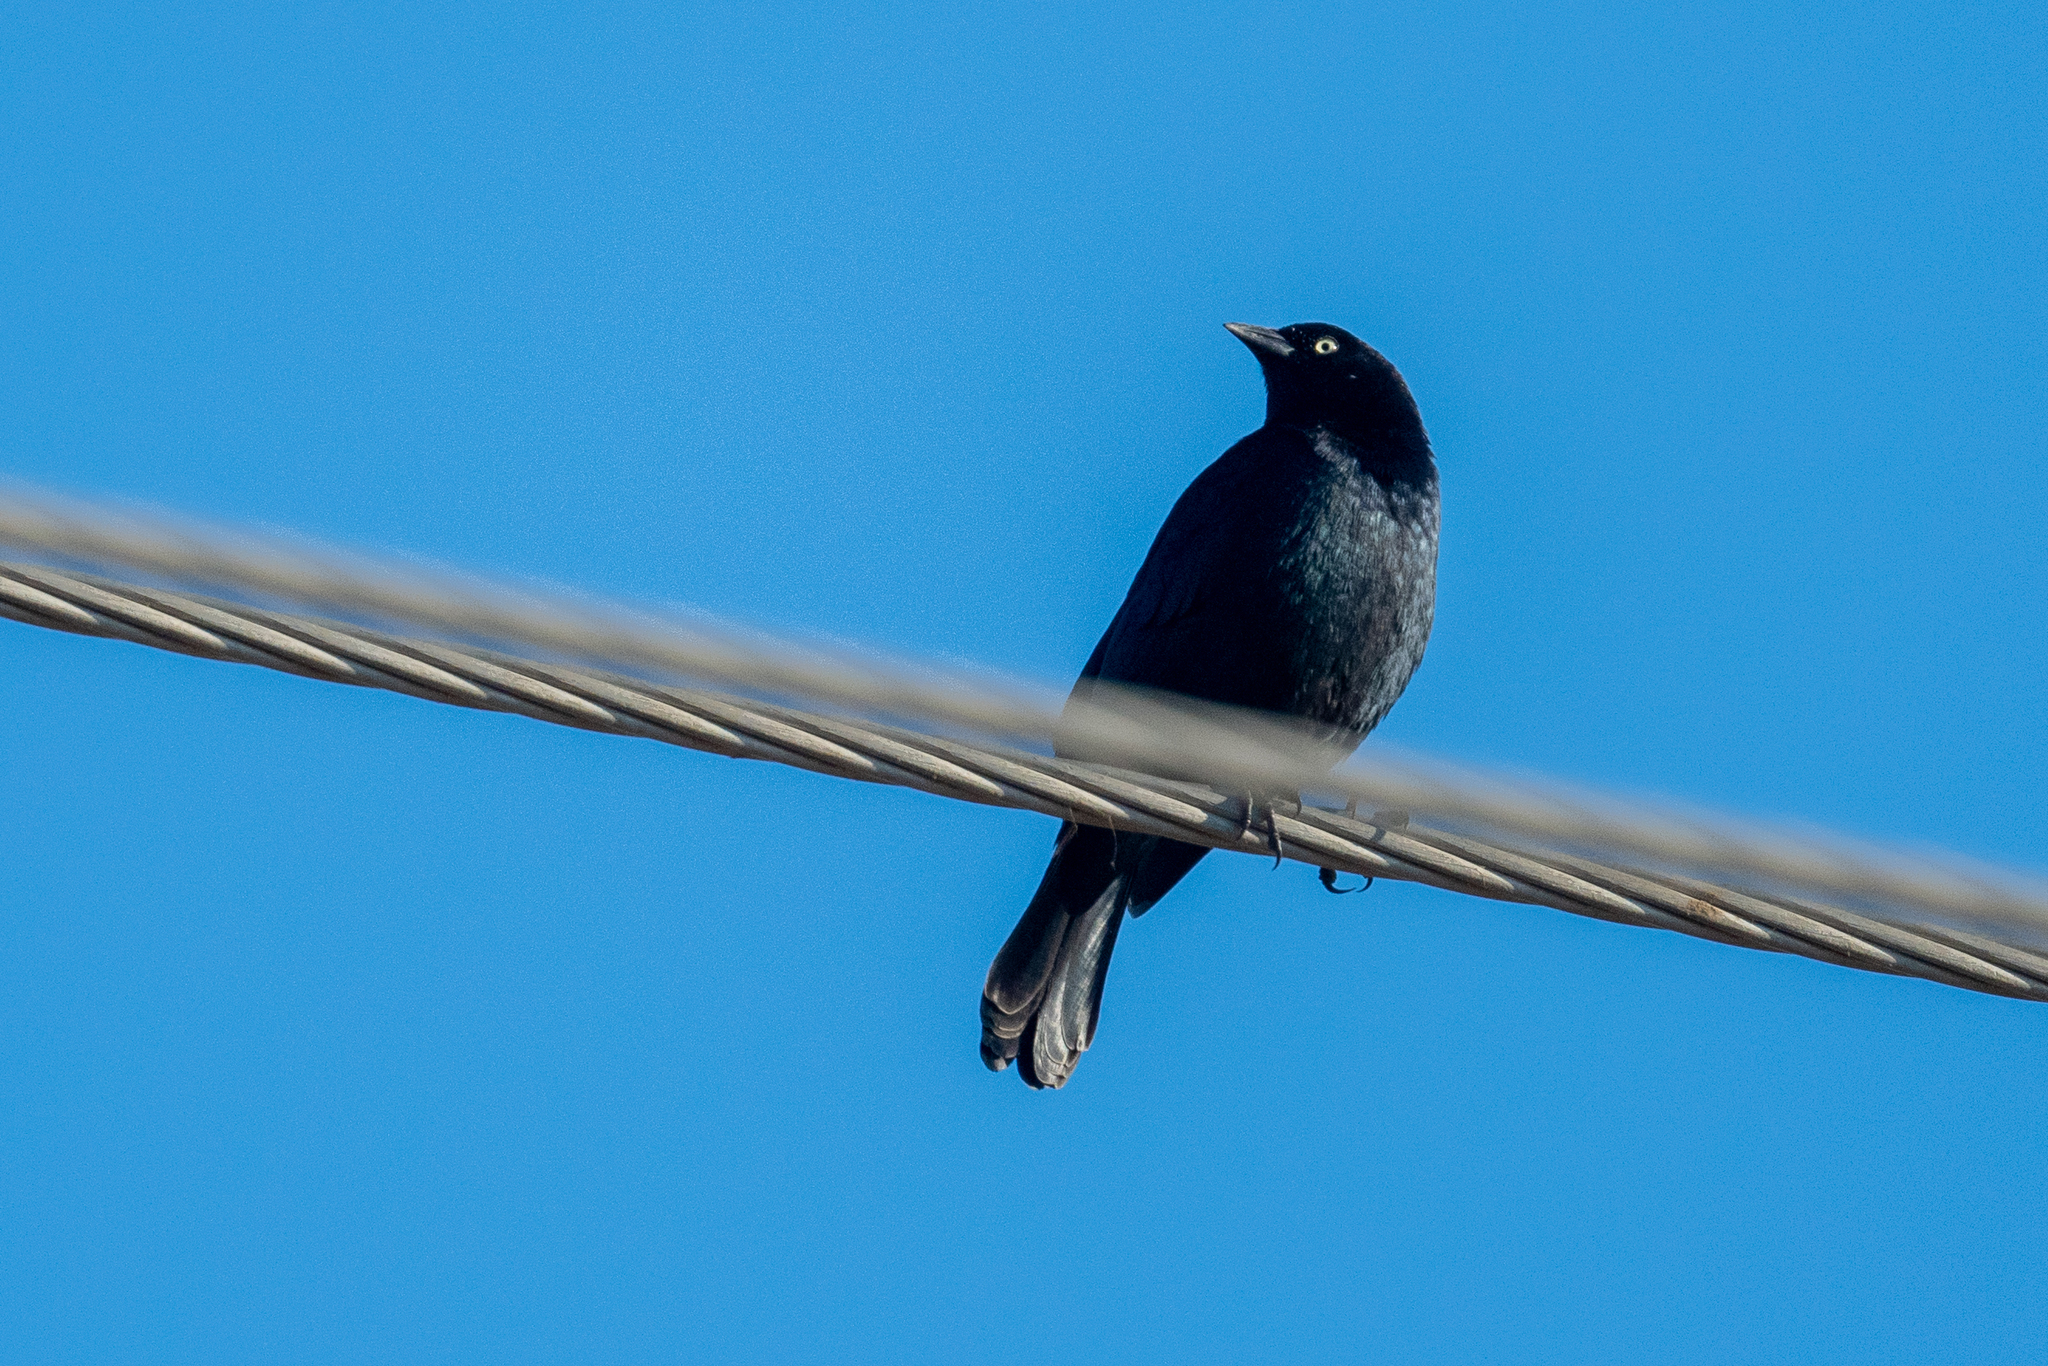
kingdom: Animalia
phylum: Chordata
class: Aves
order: Passeriformes
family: Icteridae
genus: Euphagus
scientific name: Euphagus cyanocephalus
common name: Brewer's blackbird
